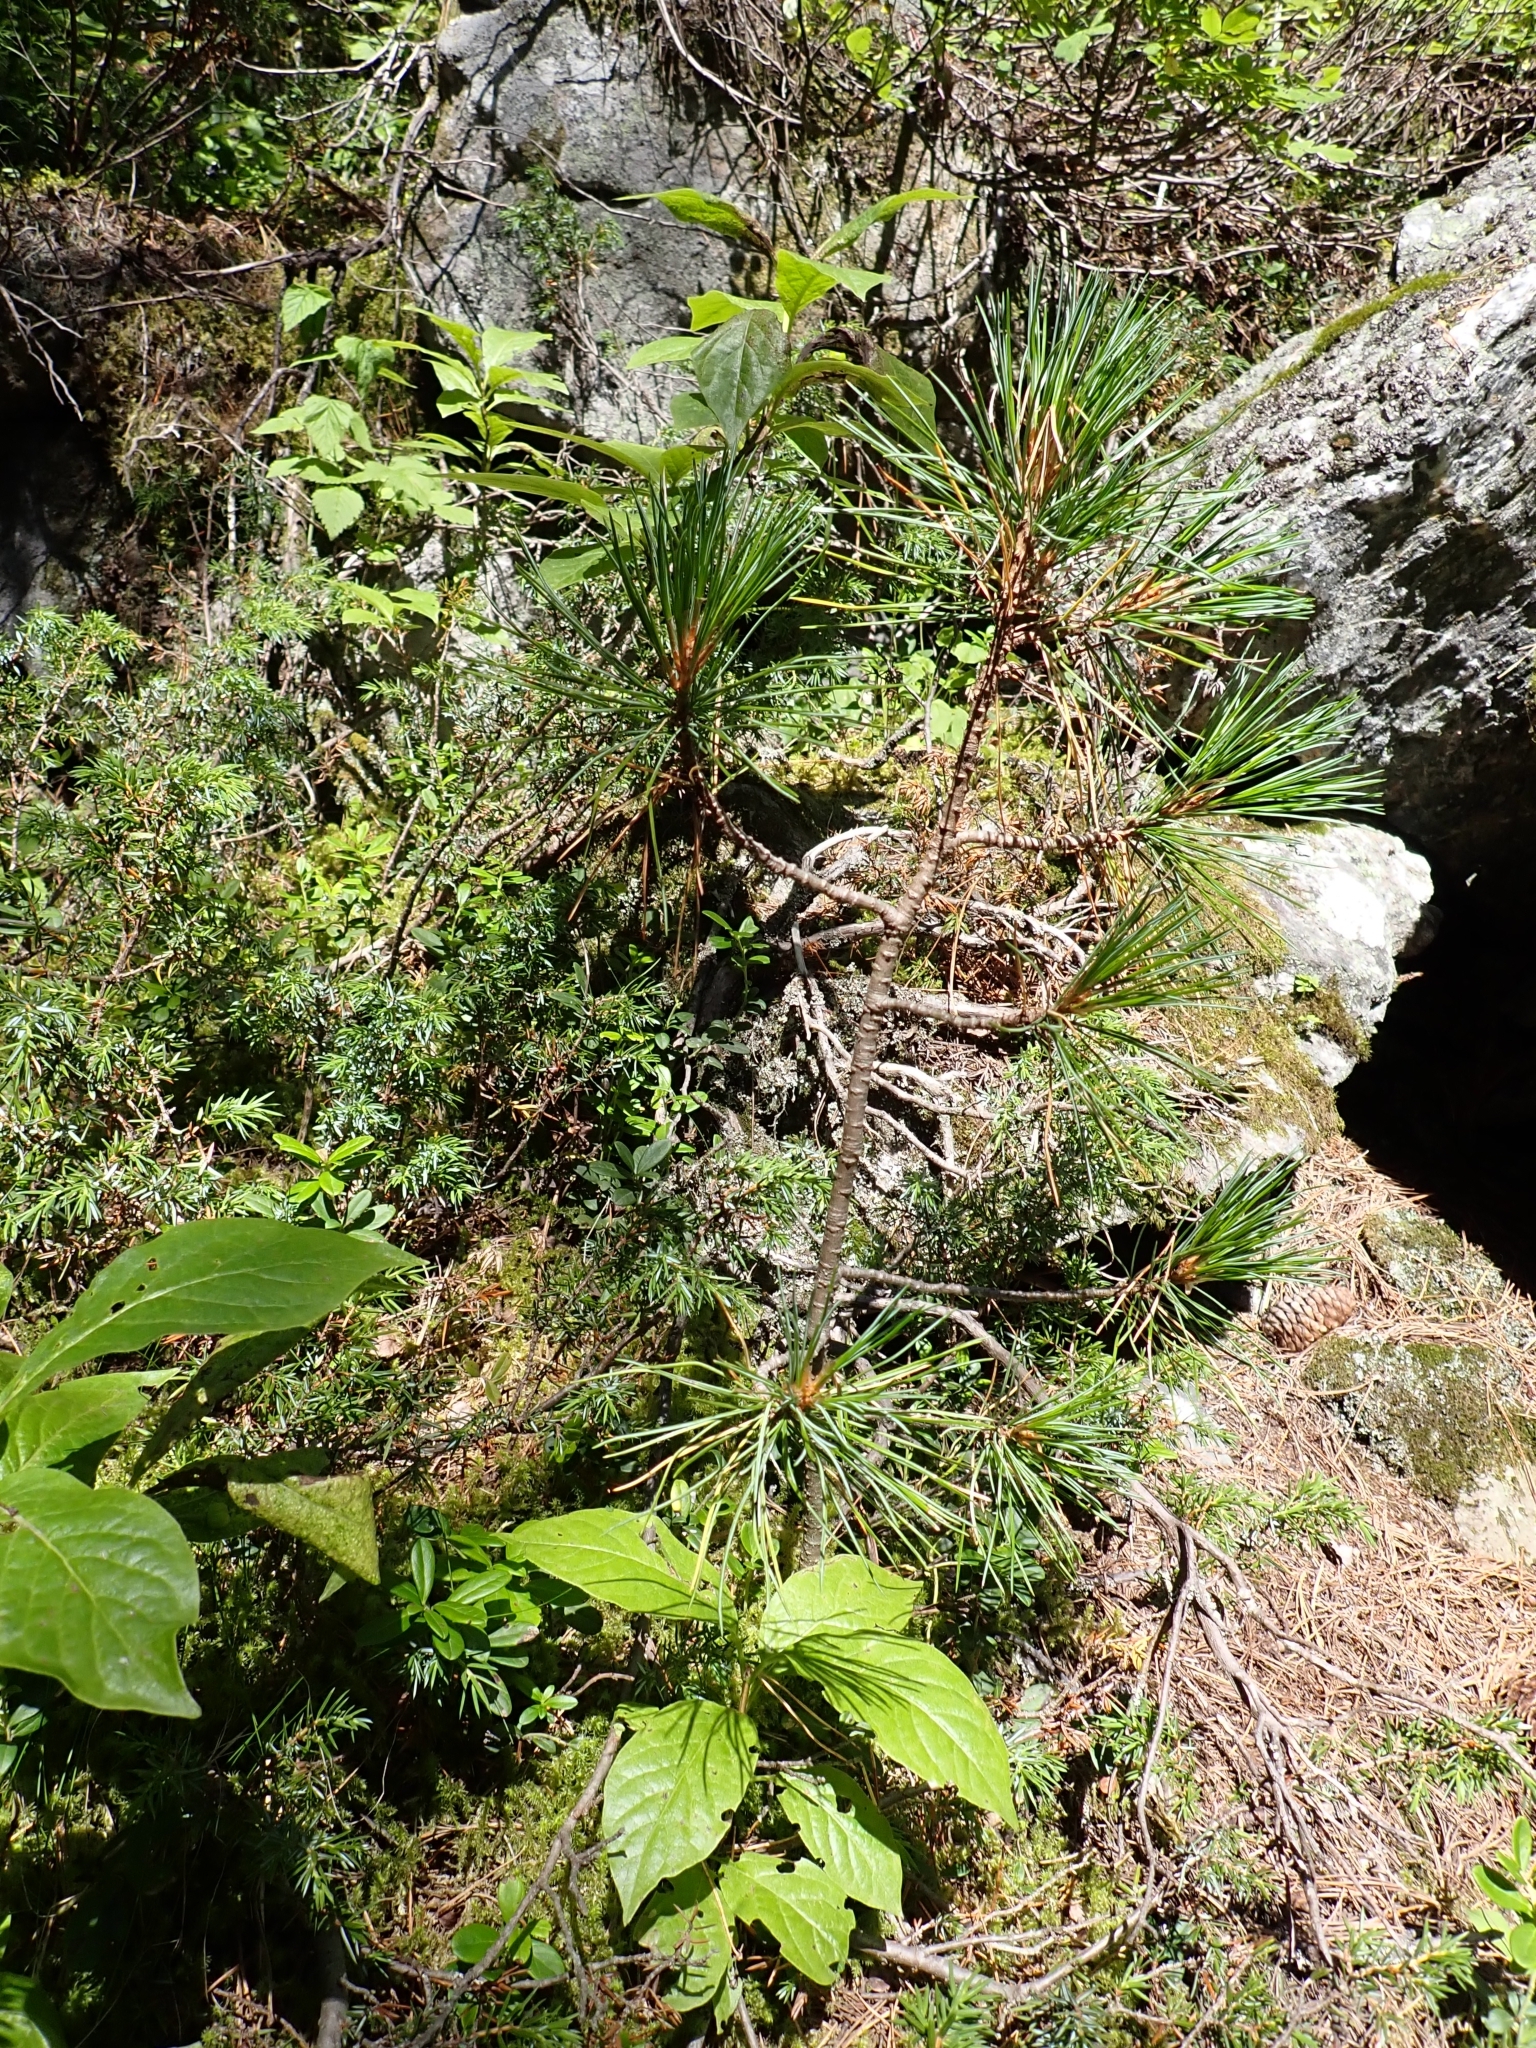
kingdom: Plantae
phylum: Tracheophyta
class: Pinopsida
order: Pinales
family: Pinaceae
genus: Pinus
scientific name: Pinus cembra
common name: Arolla pine
